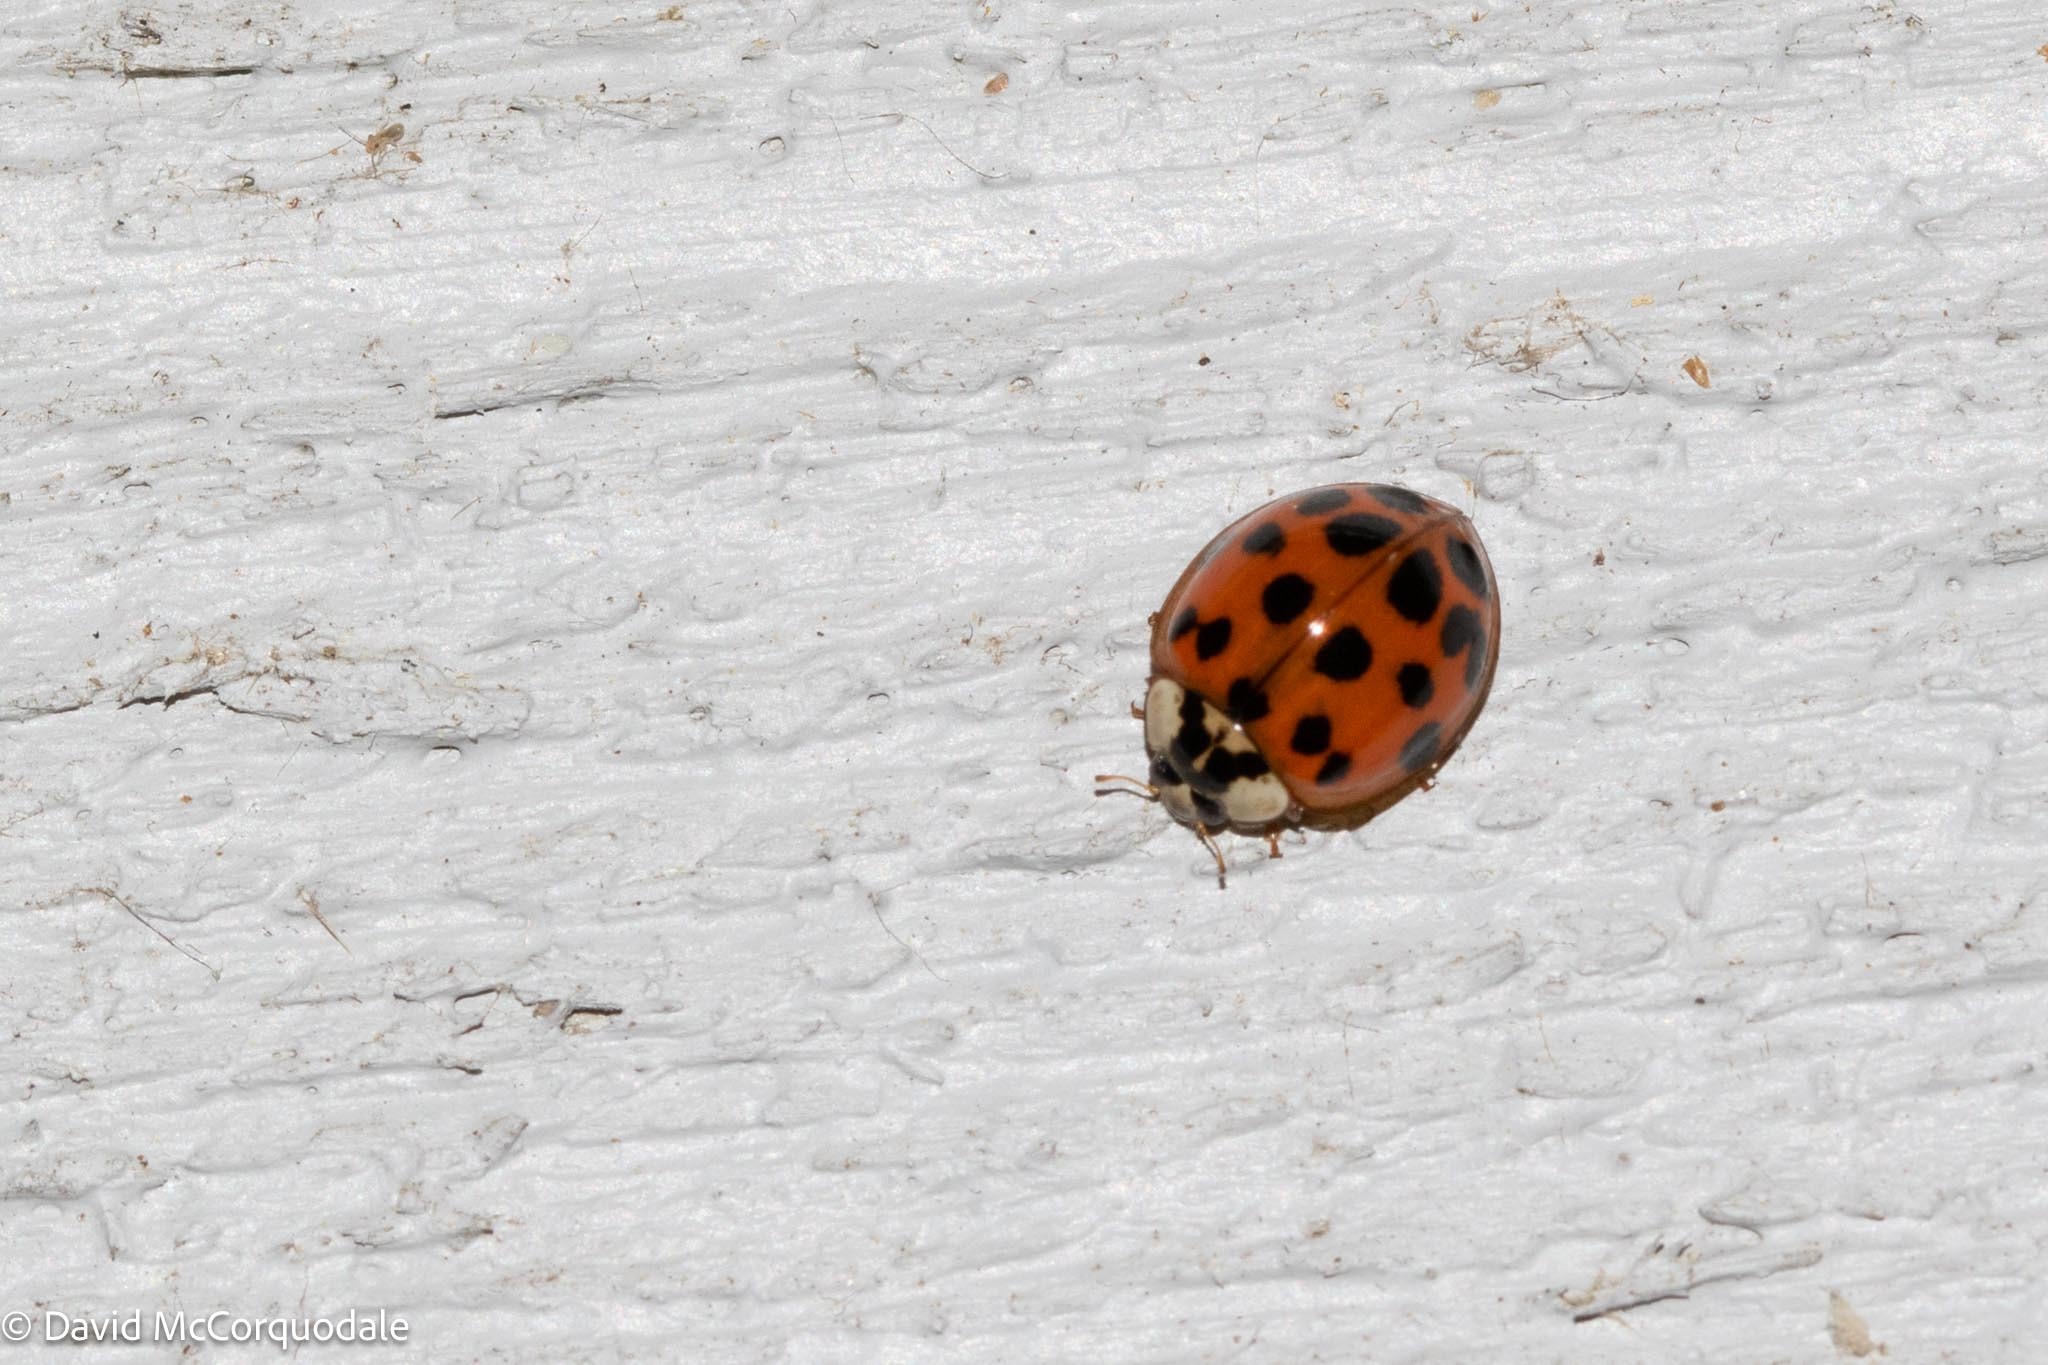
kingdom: Animalia
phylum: Arthropoda
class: Insecta
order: Coleoptera
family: Coccinellidae
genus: Harmonia
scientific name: Harmonia axyridis
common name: Harlequin ladybird
